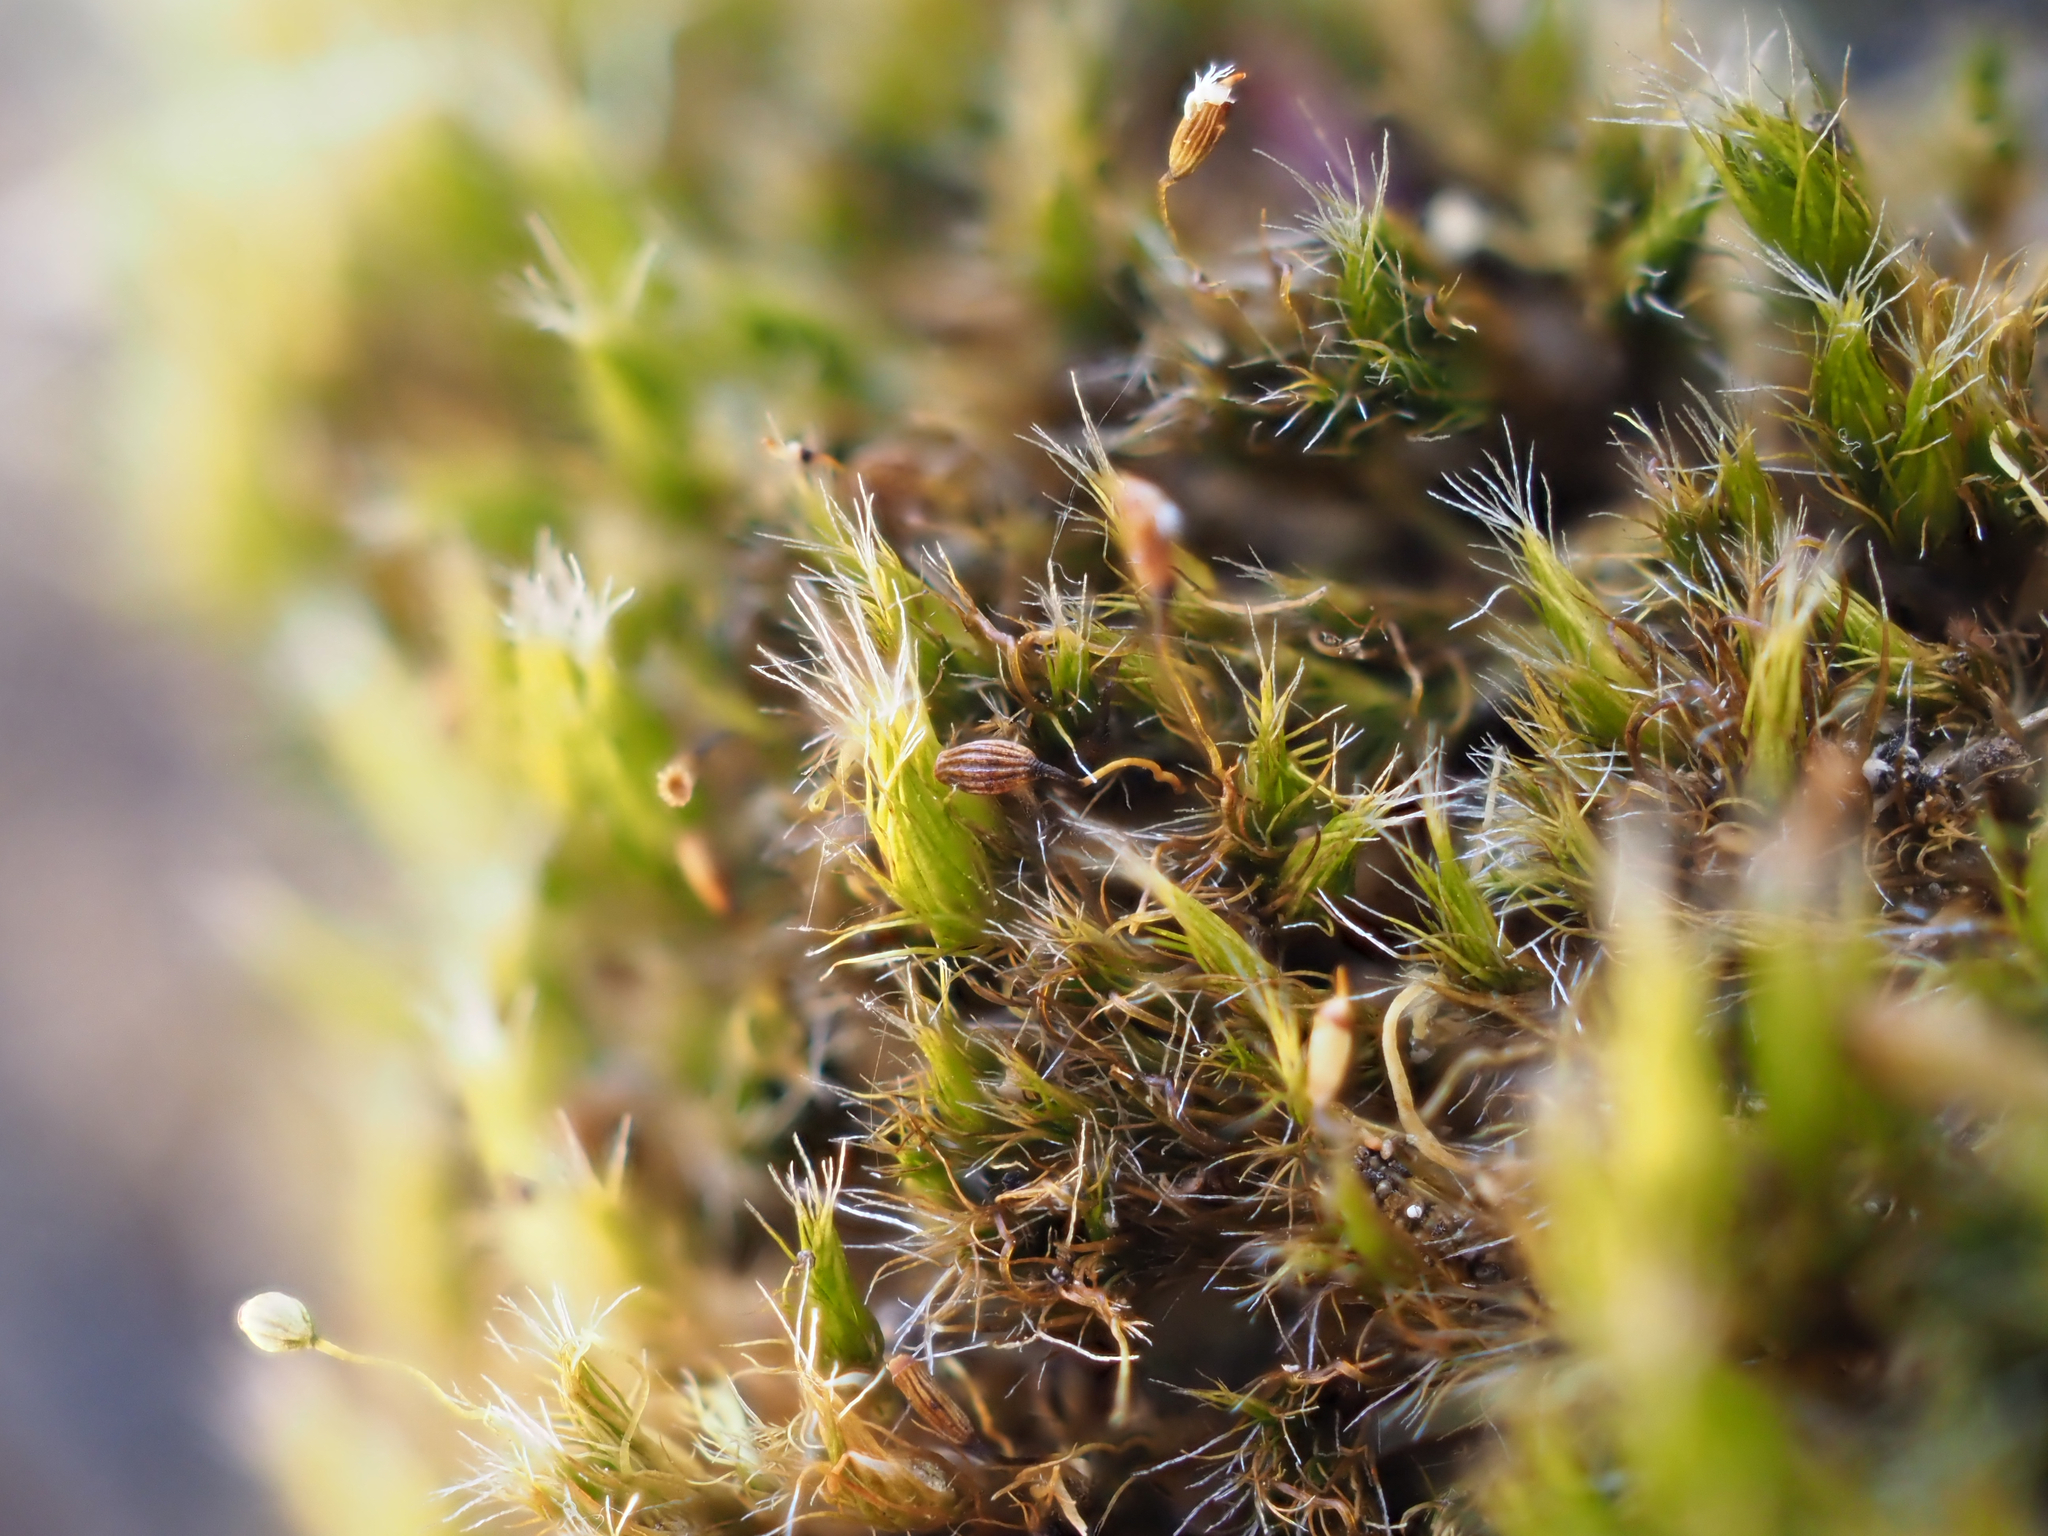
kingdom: Plantae
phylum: Bryophyta
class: Bryopsida
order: Dicranales
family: Leucobryaceae
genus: Campylopus
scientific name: Campylopus introflexus
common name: Heath star moss
